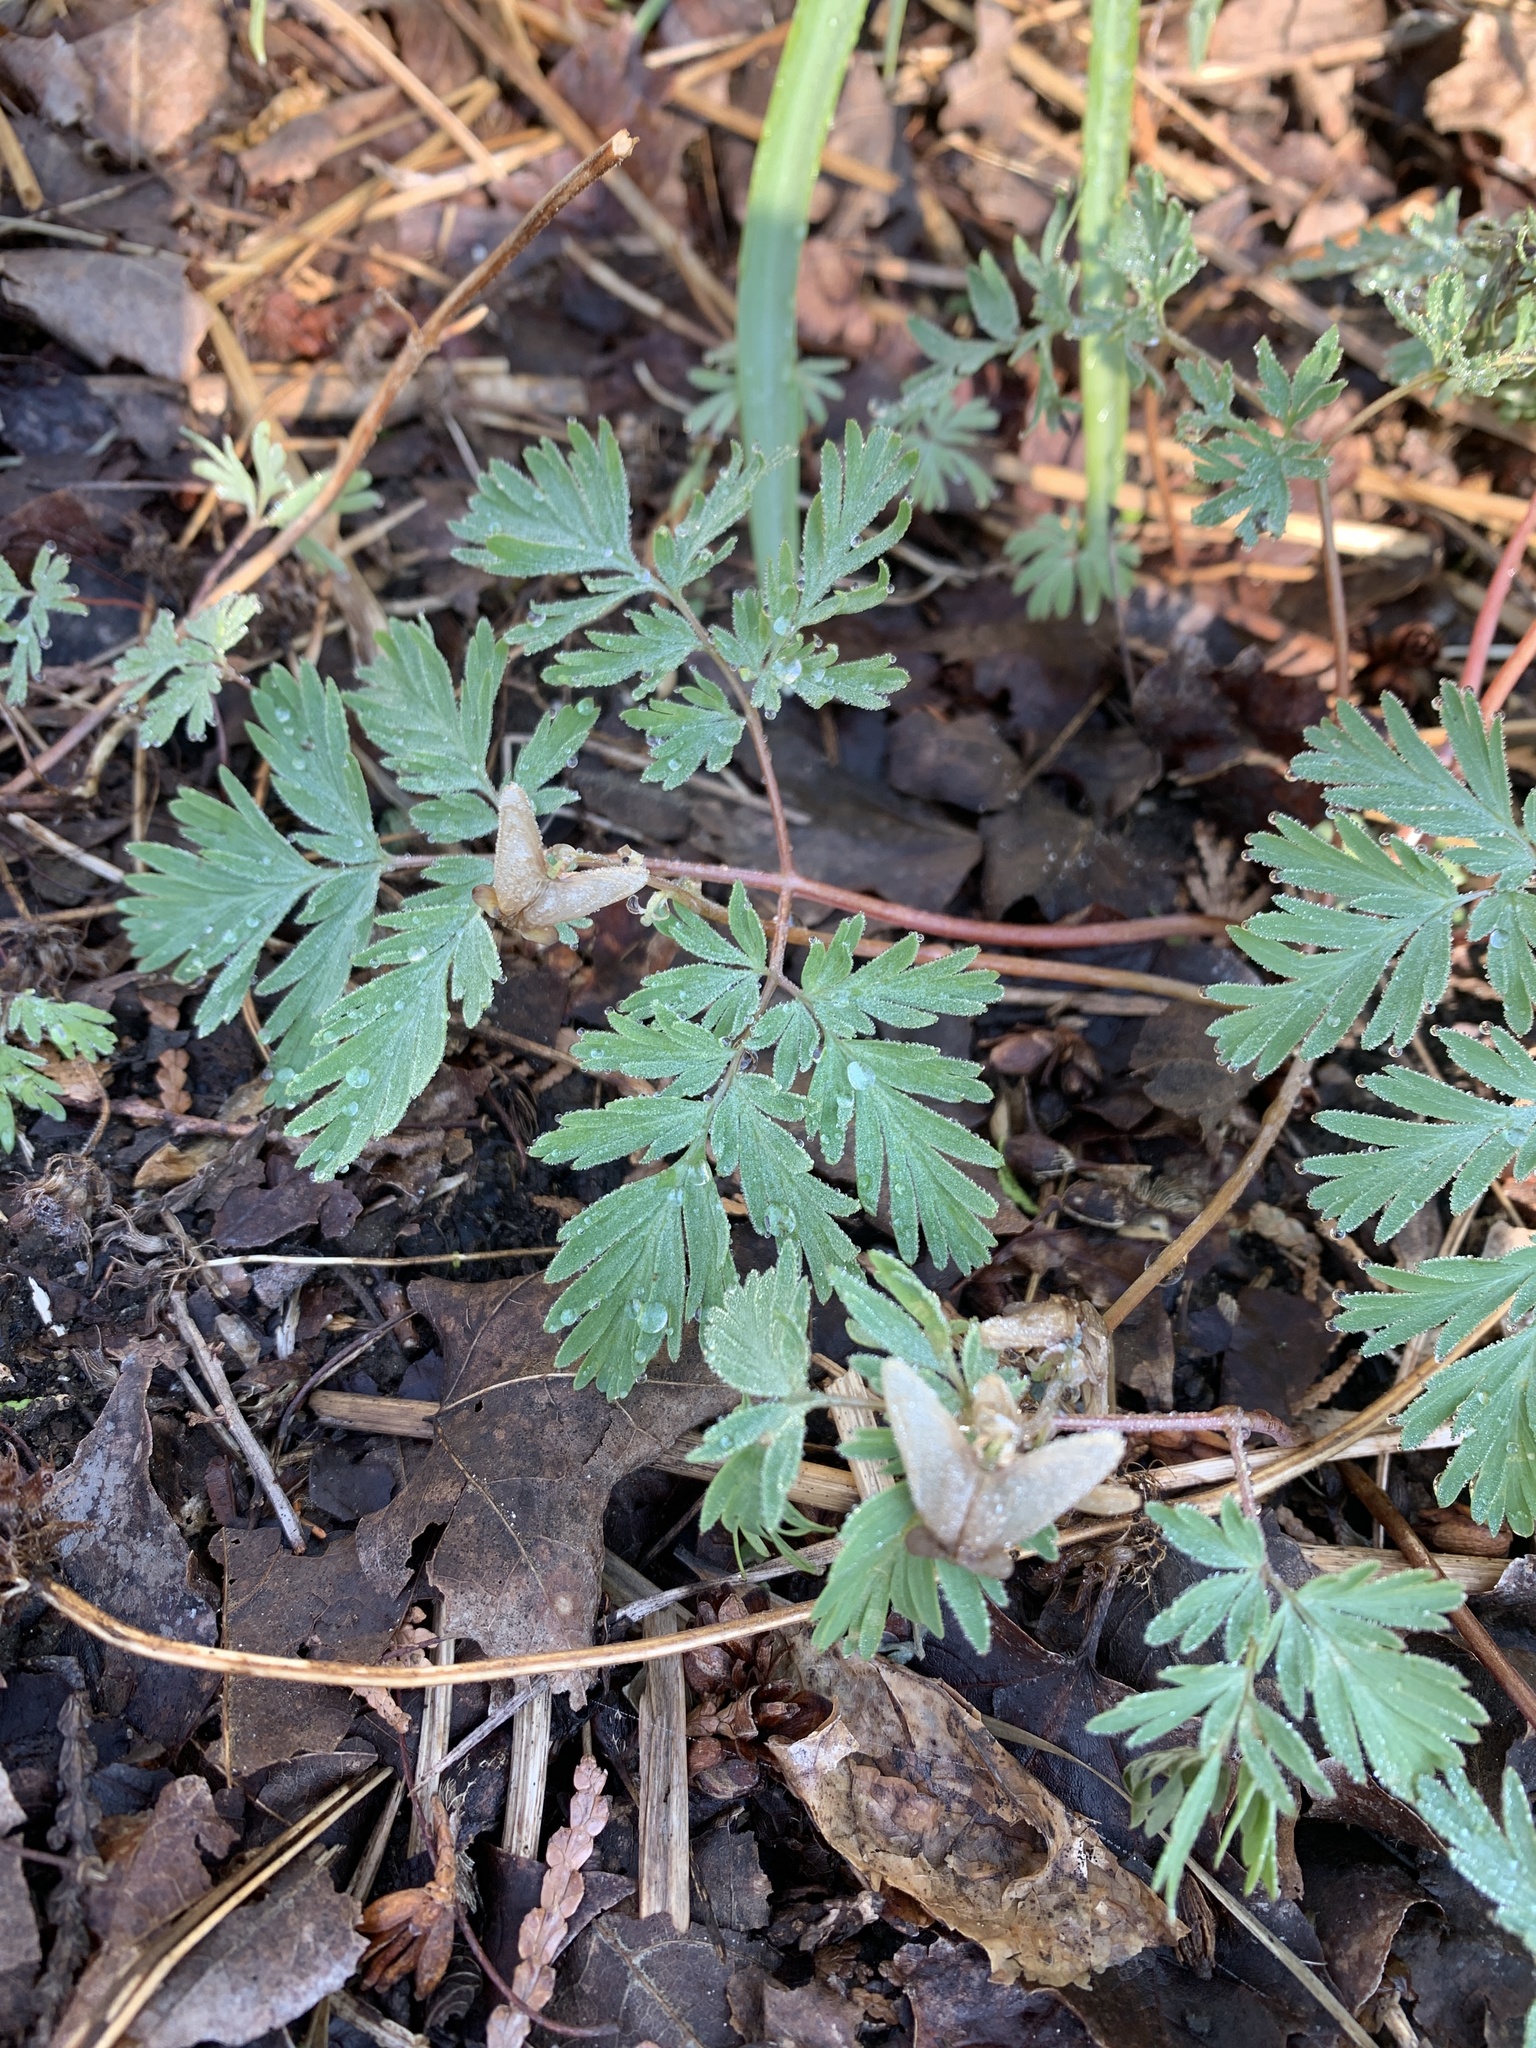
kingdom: Plantae
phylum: Tracheophyta
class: Magnoliopsida
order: Ranunculales
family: Papaveraceae
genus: Dicentra
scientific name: Dicentra cucullaria
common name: Dutchman's breeches
